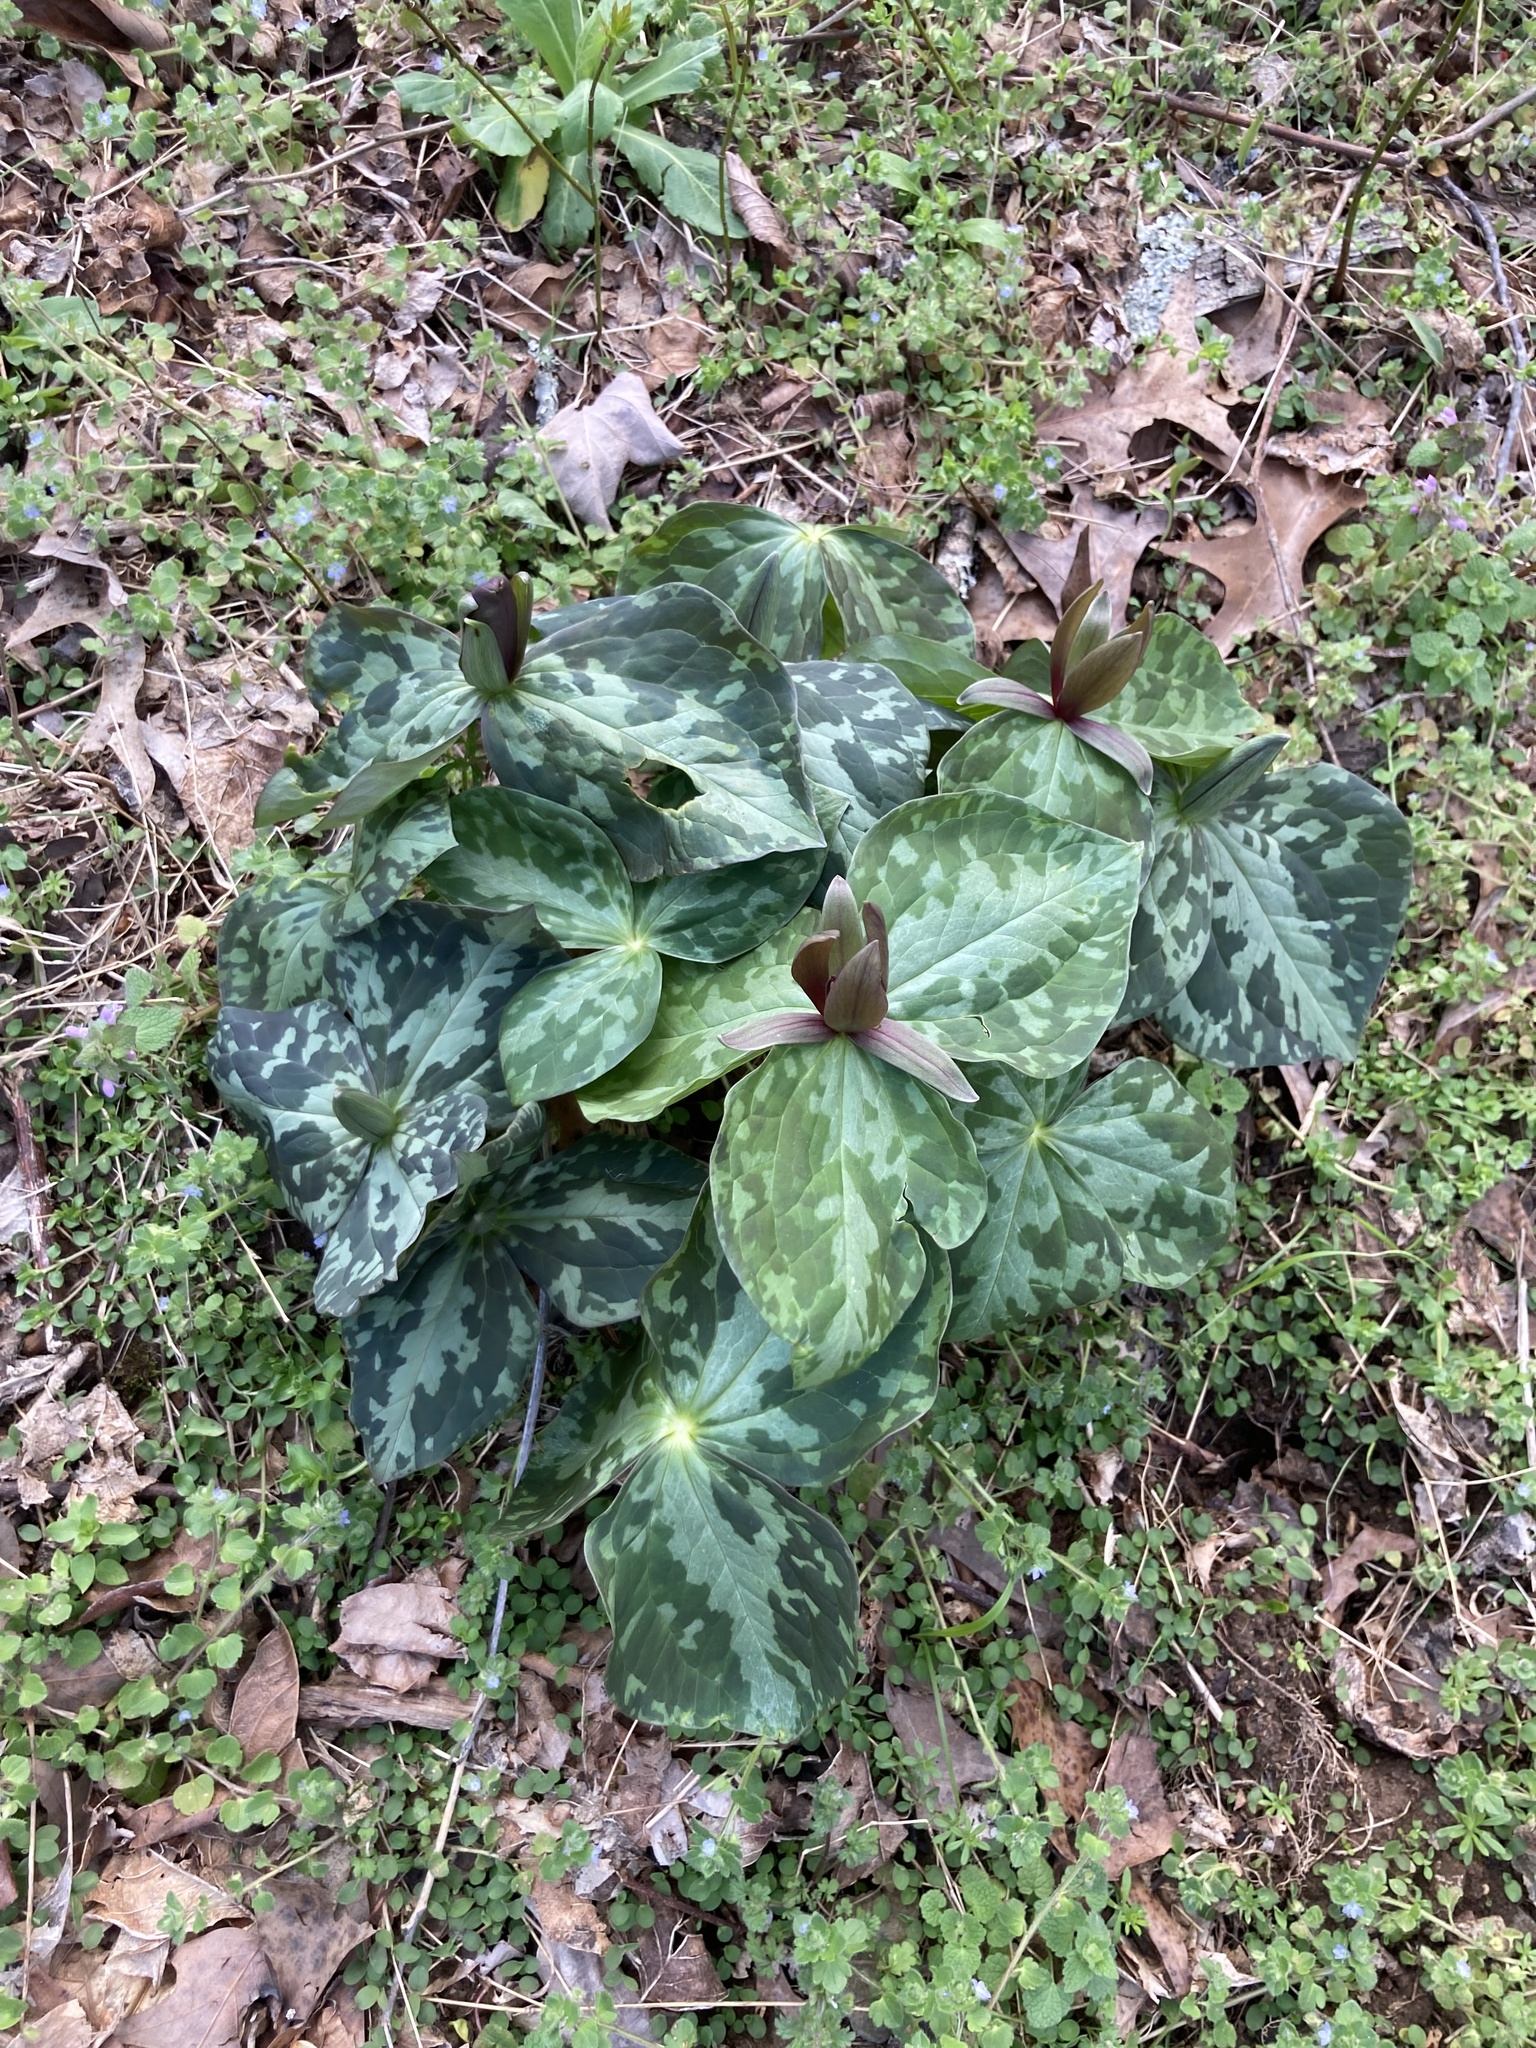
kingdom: Plantae
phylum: Tracheophyta
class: Liliopsida
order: Liliales
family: Melanthiaceae
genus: Trillium
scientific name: Trillium cuneatum
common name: Cuneate trillium
